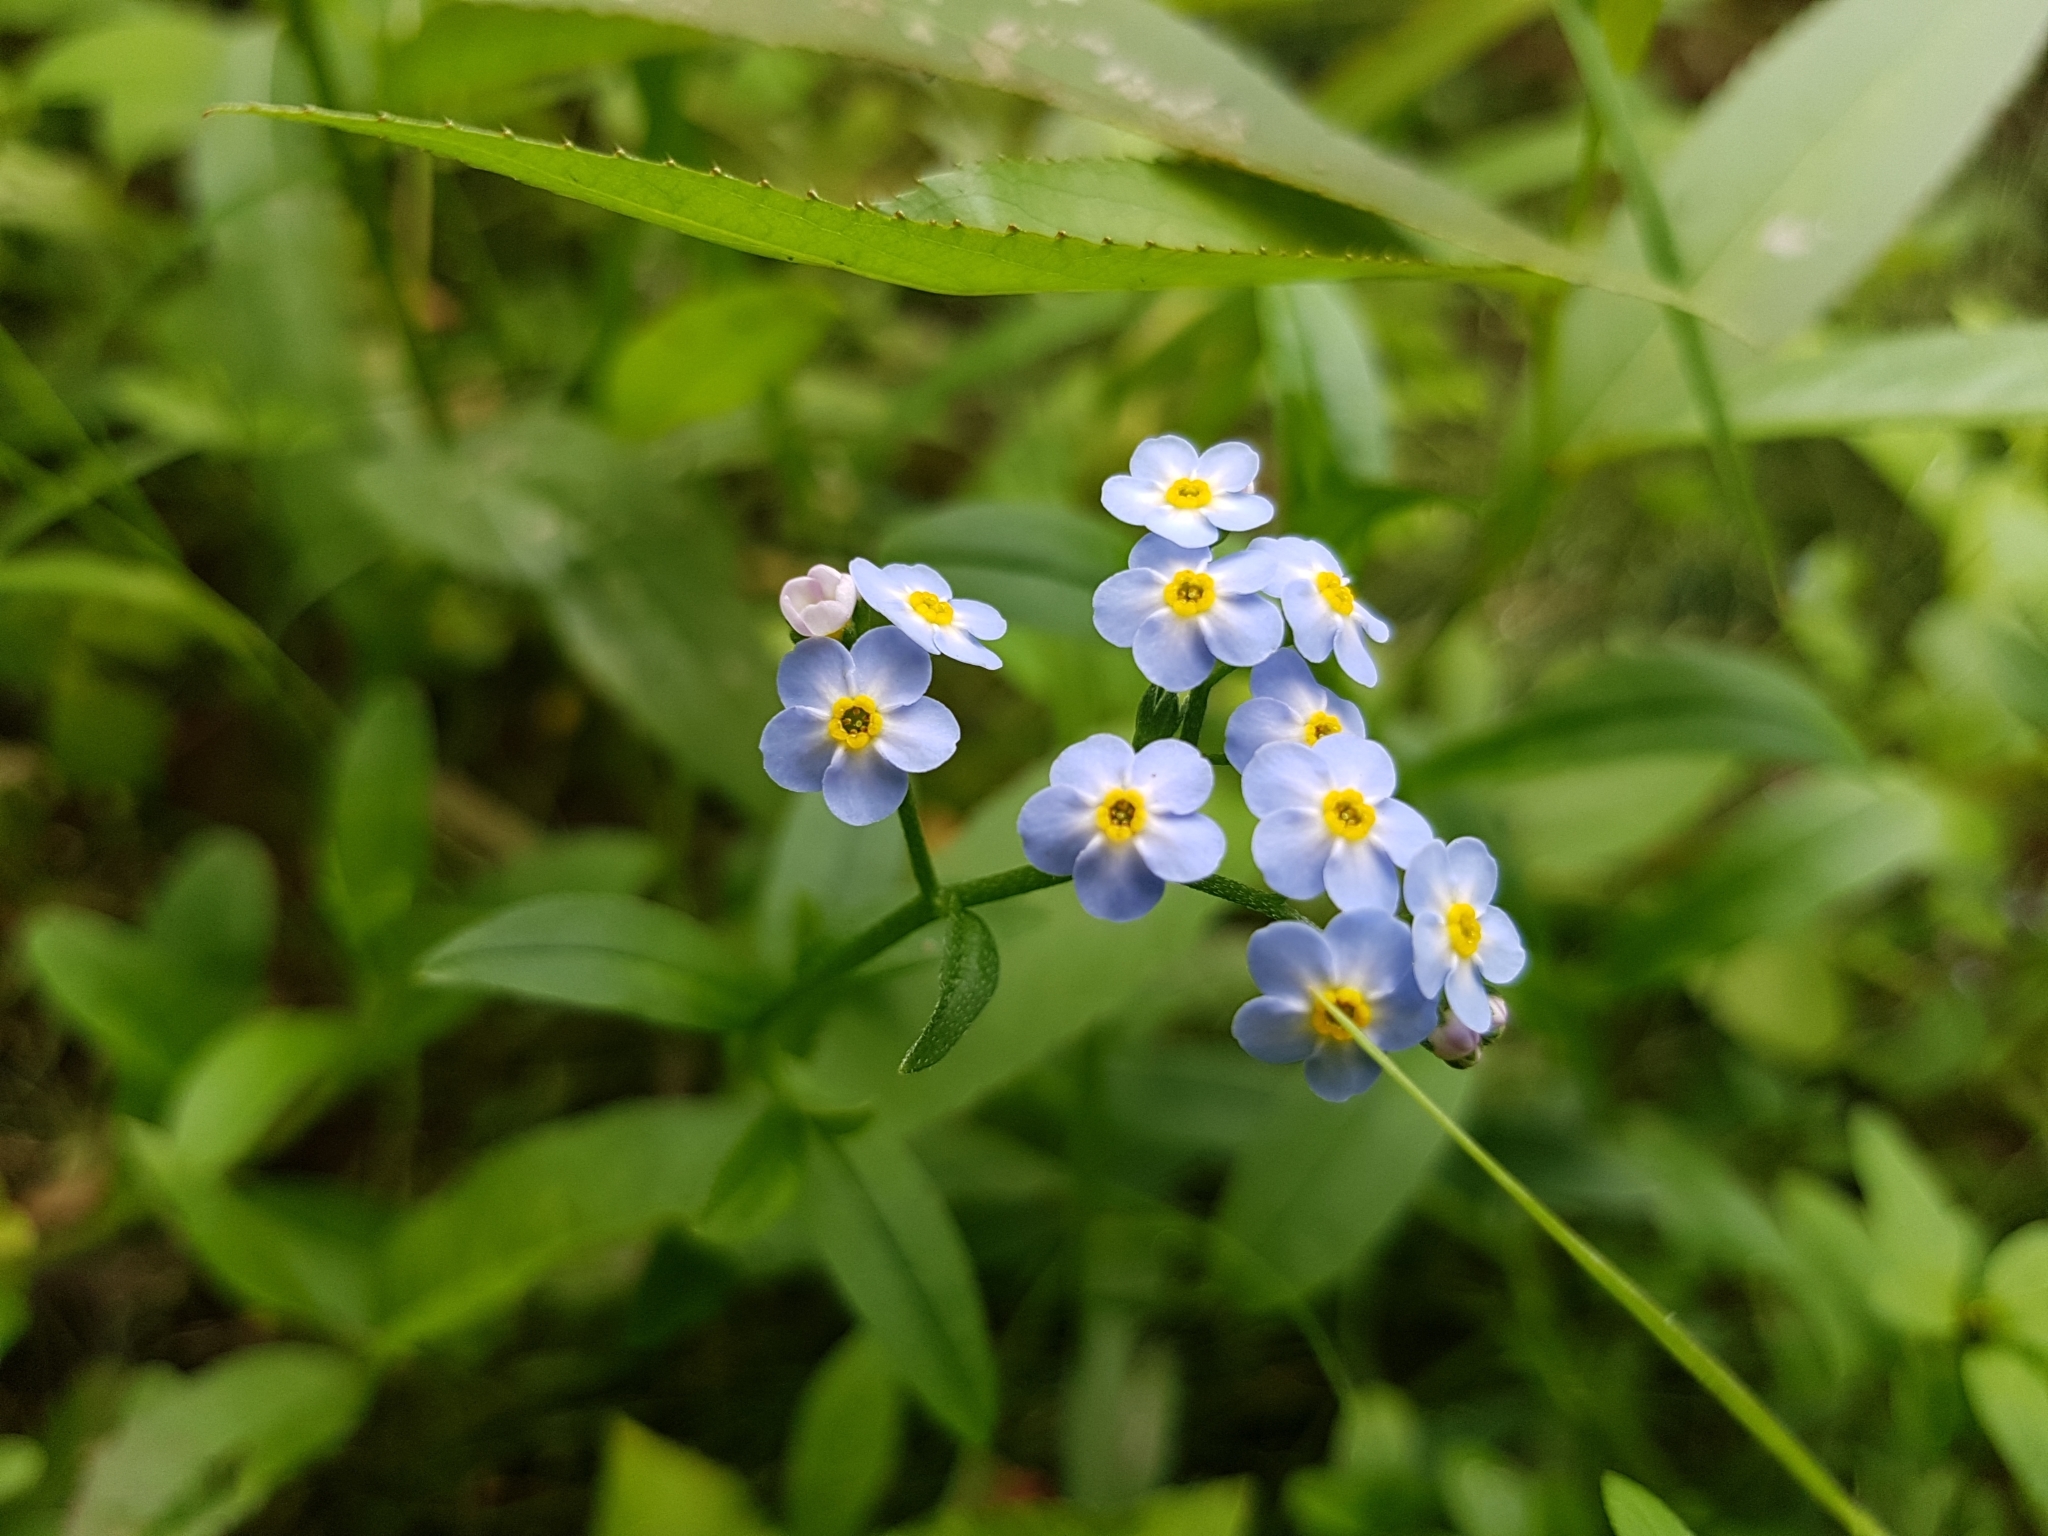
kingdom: Plantae
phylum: Tracheophyta
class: Magnoliopsida
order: Boraginales
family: Boraginaceae
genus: Myosotis
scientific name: Myosotis scorpioides
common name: Water forget-me-not
